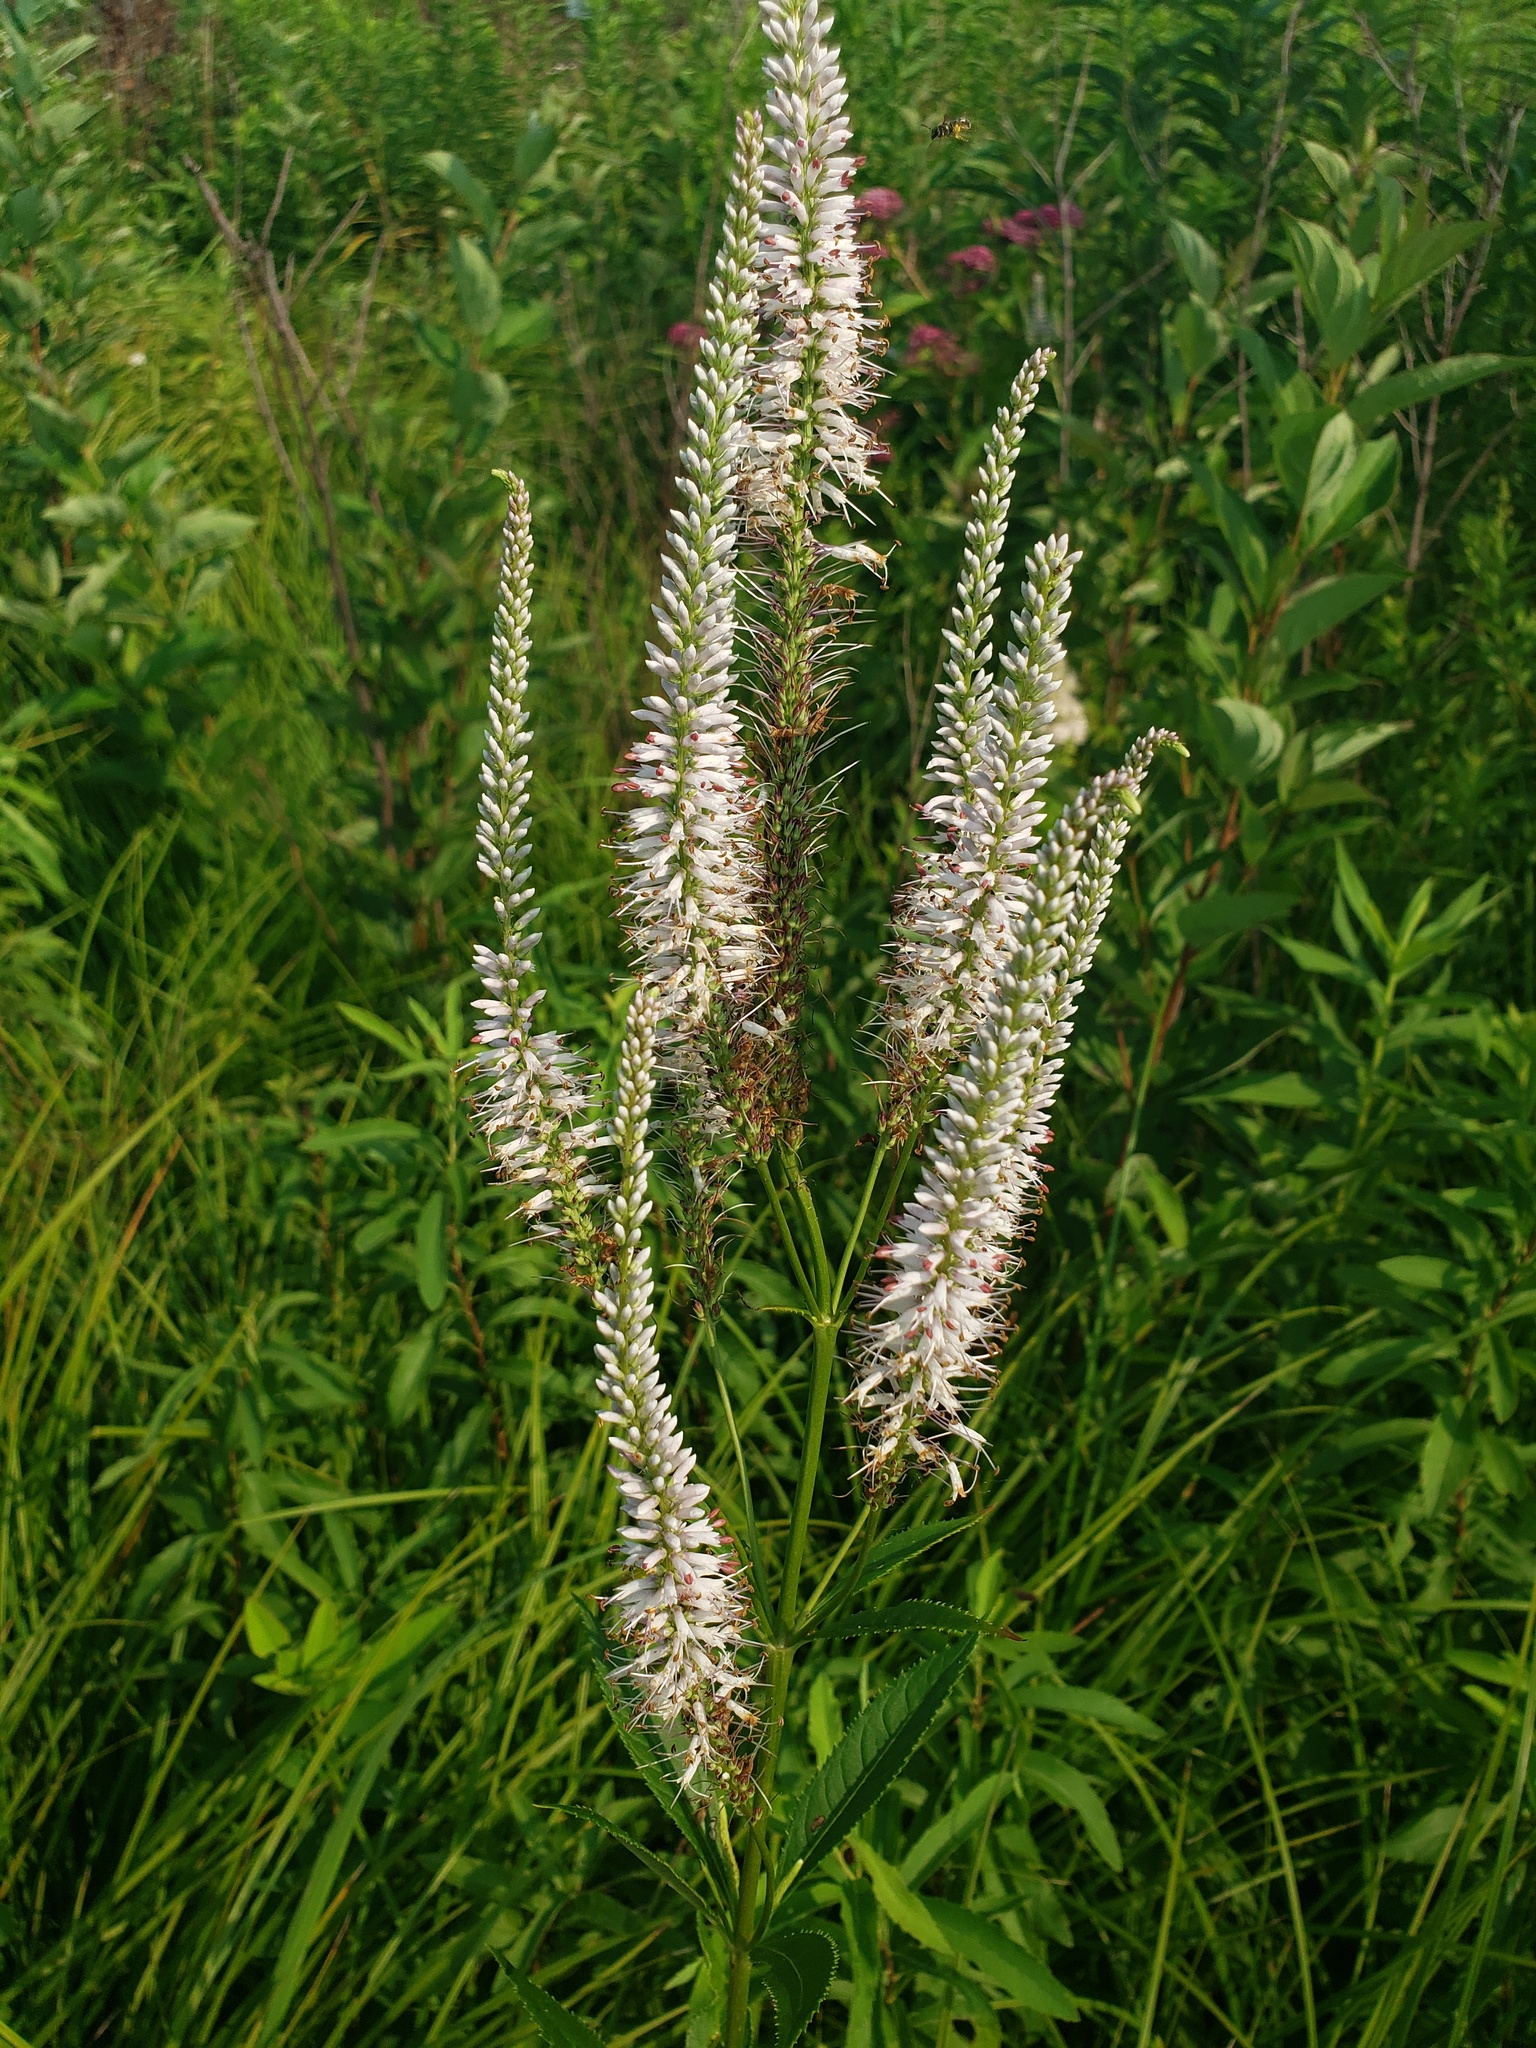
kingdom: Plantae
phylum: Tracheophyta
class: Magnoliopsida
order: Lamiales
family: Plantaginaceae
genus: Veronicastrum
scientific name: Veronicastrum virginicum
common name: Blackroot
